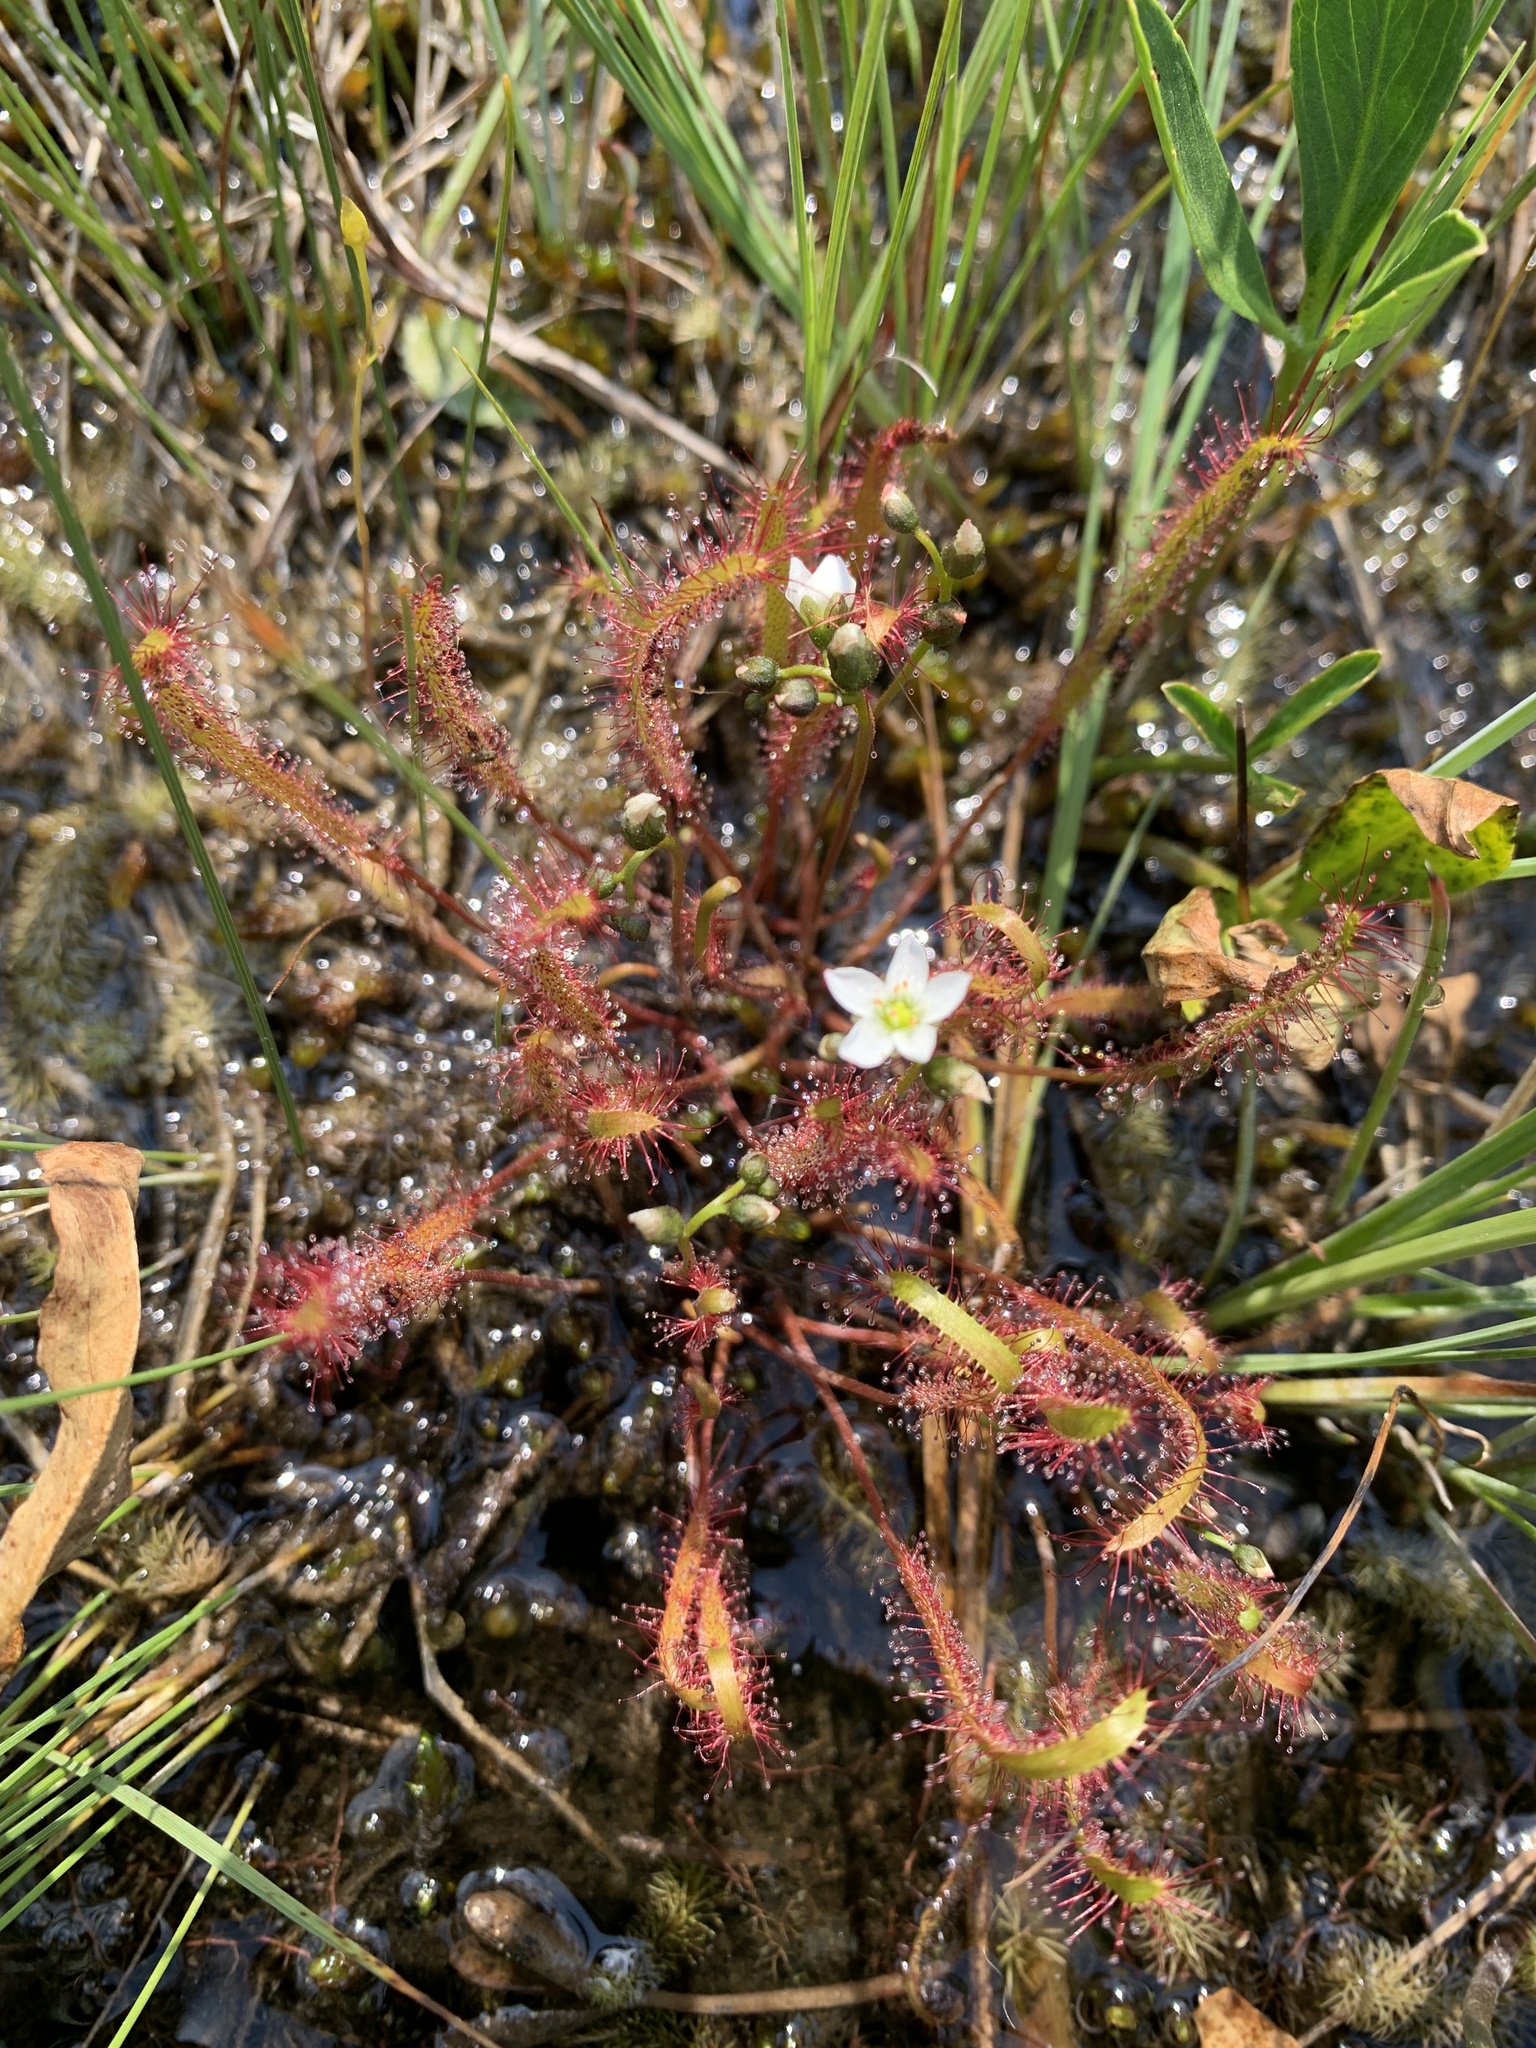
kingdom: Plantae
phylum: Tracheophyta
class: Magnoliopsida
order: Caryophyllales
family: Droseraceae
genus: Drosera
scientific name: Drosera linearis
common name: Linear-leaved sundew
